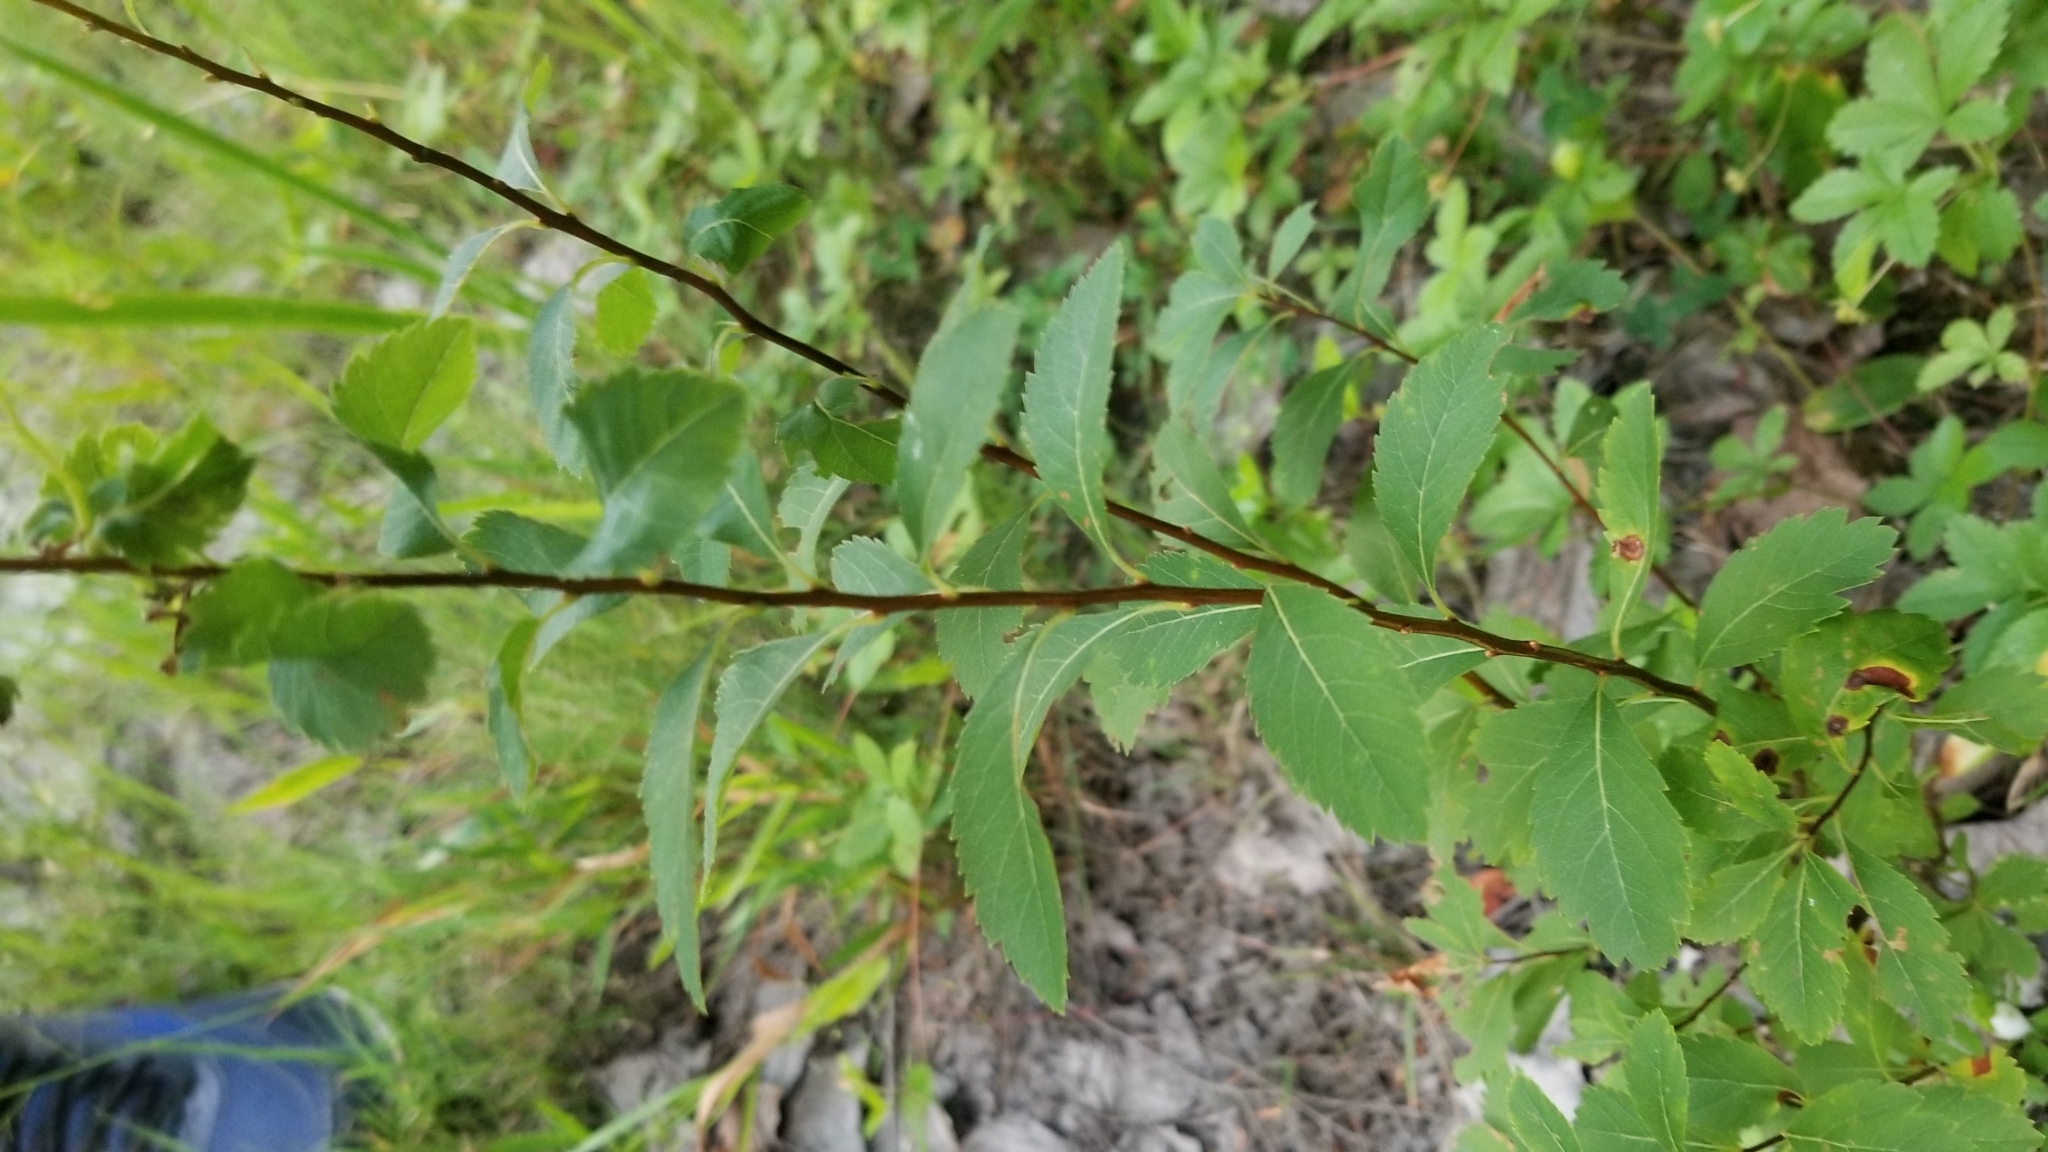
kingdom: Plantae
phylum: Tracheophyta
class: Magnoliopsida
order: Rosales
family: Rosaceae
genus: Spiraea
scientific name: Spiraea alba
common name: Pale bridewort
